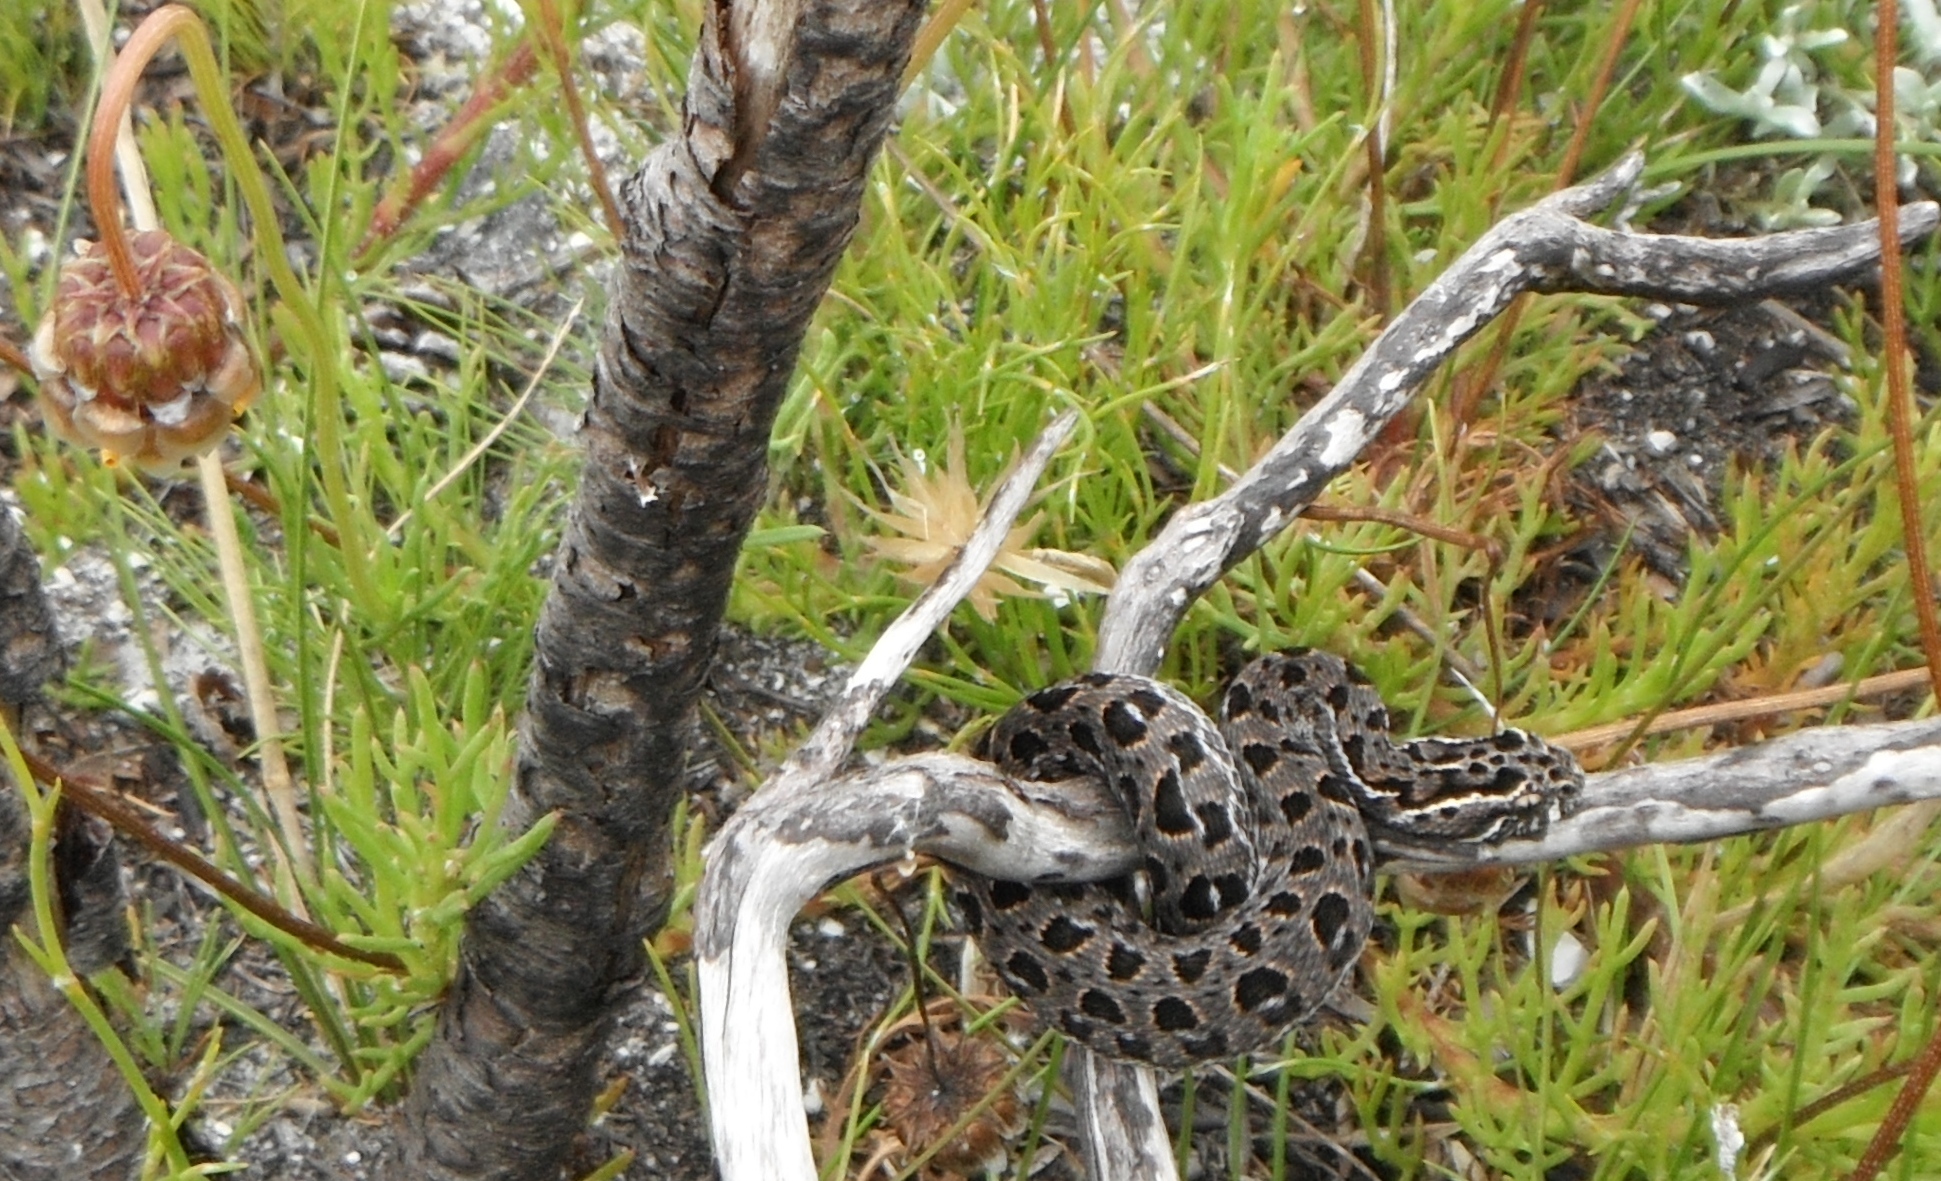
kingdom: Animalia
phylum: Chordata
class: Squamata
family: Viperidae
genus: Bitis
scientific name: Bitis atropos
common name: Mountain adder
